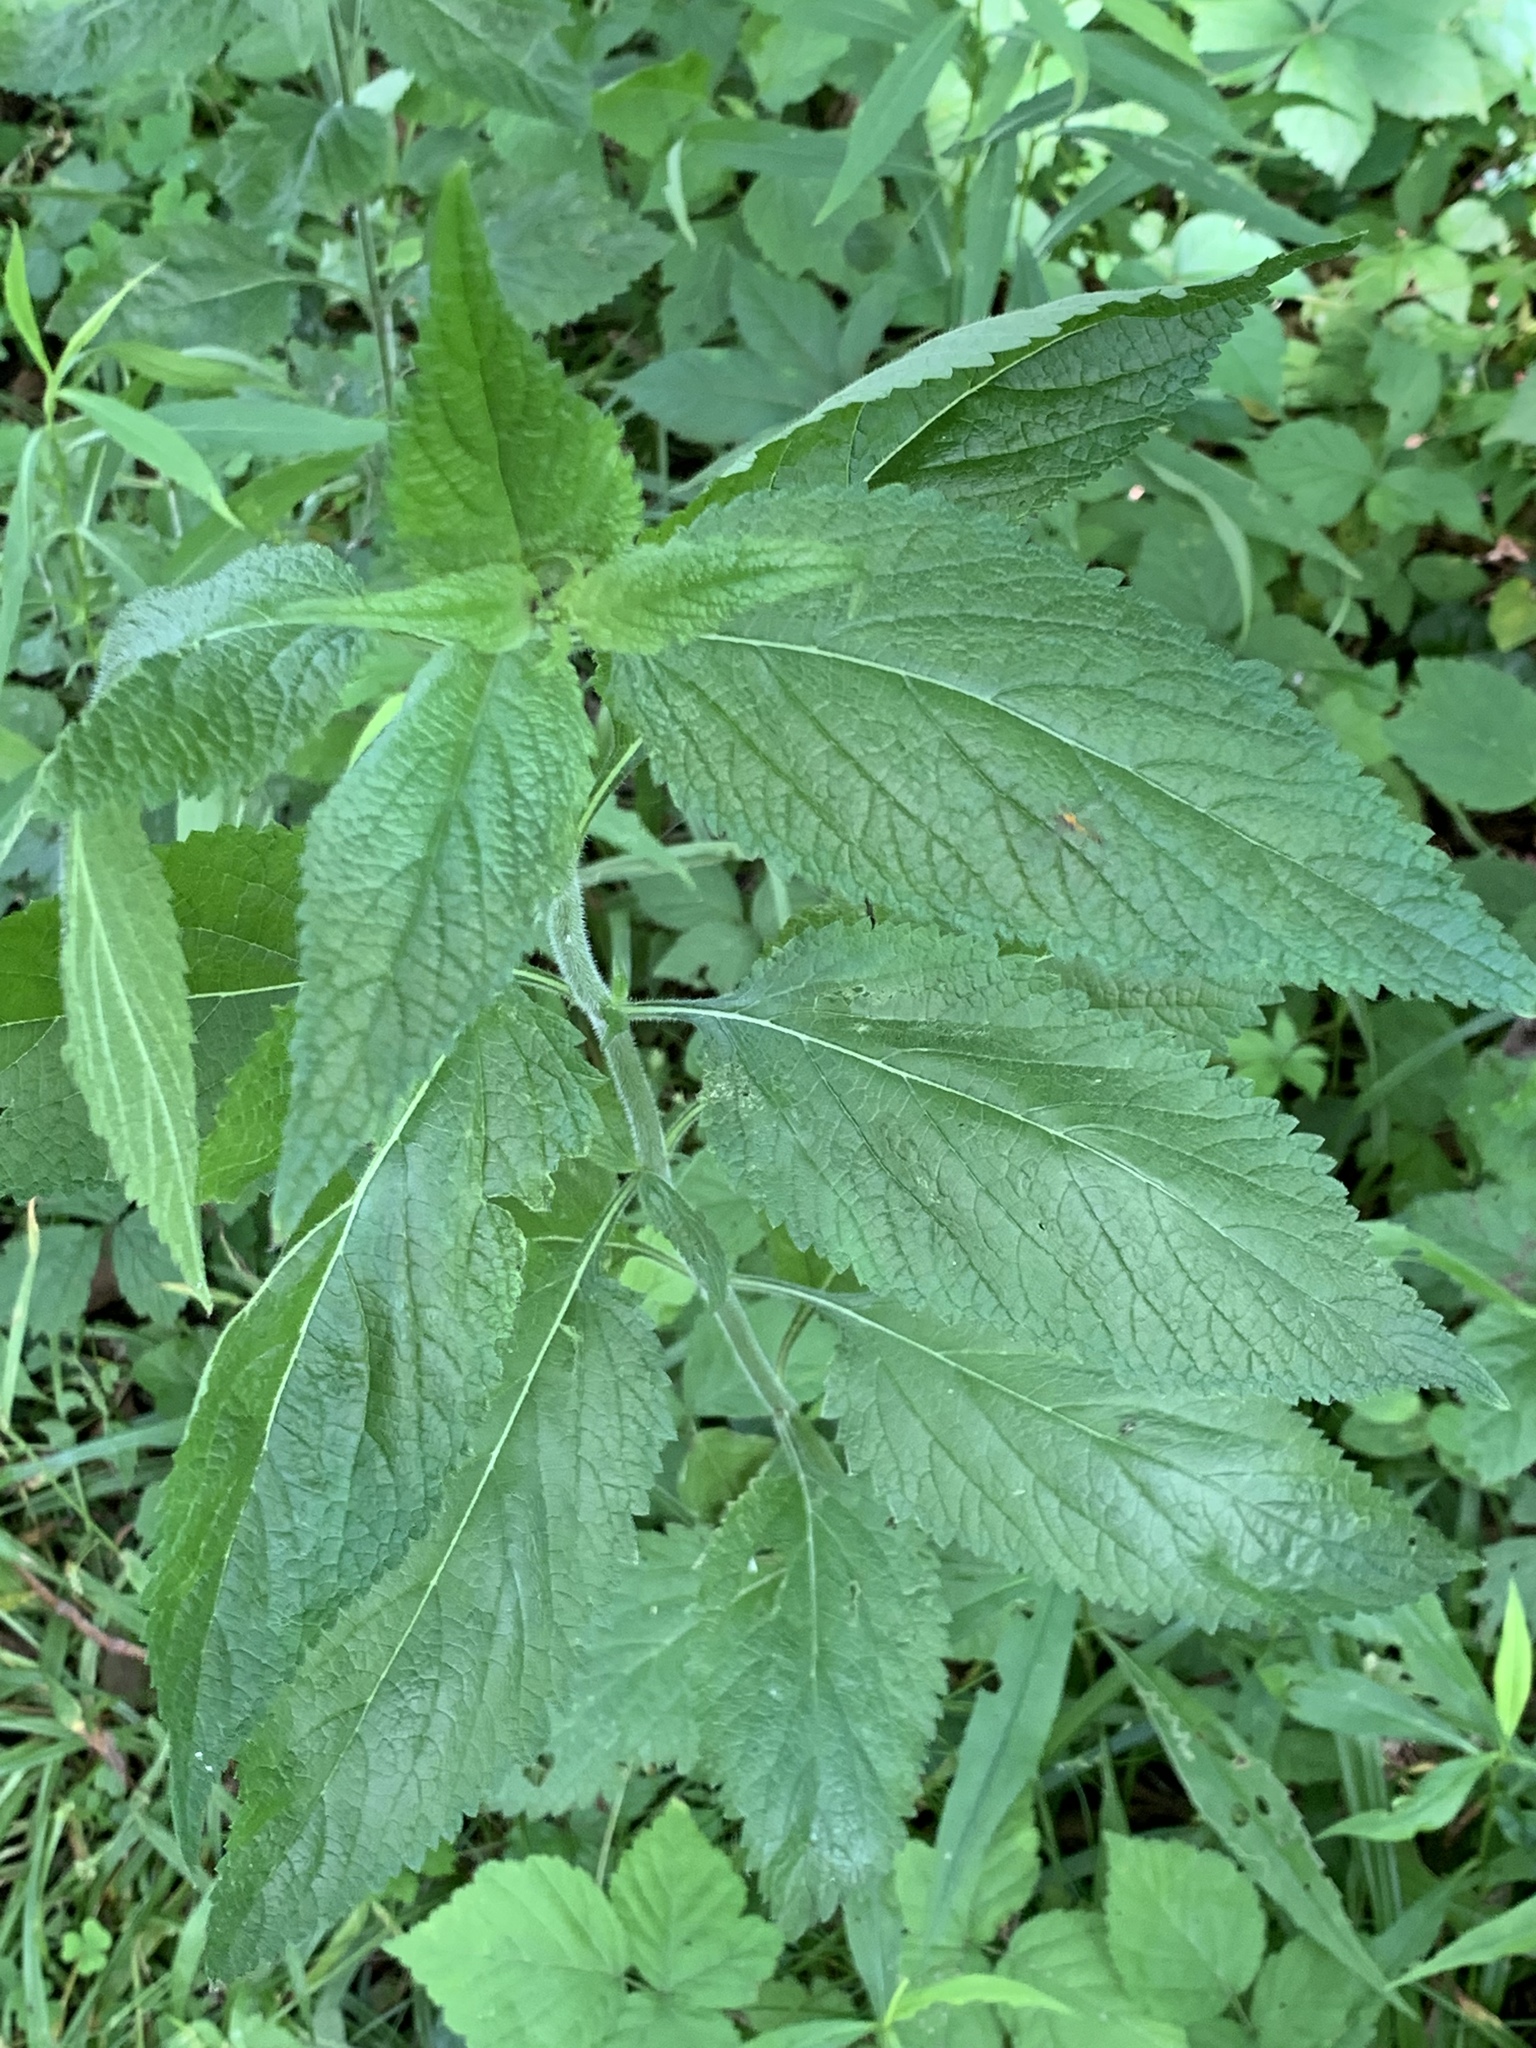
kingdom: Plantae
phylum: Tracheophyta
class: Magnoliopsida
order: Lamiales
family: Verbenaceae
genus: Verbena
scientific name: Verbena urticifolia
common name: Nettle-leaved vervain
